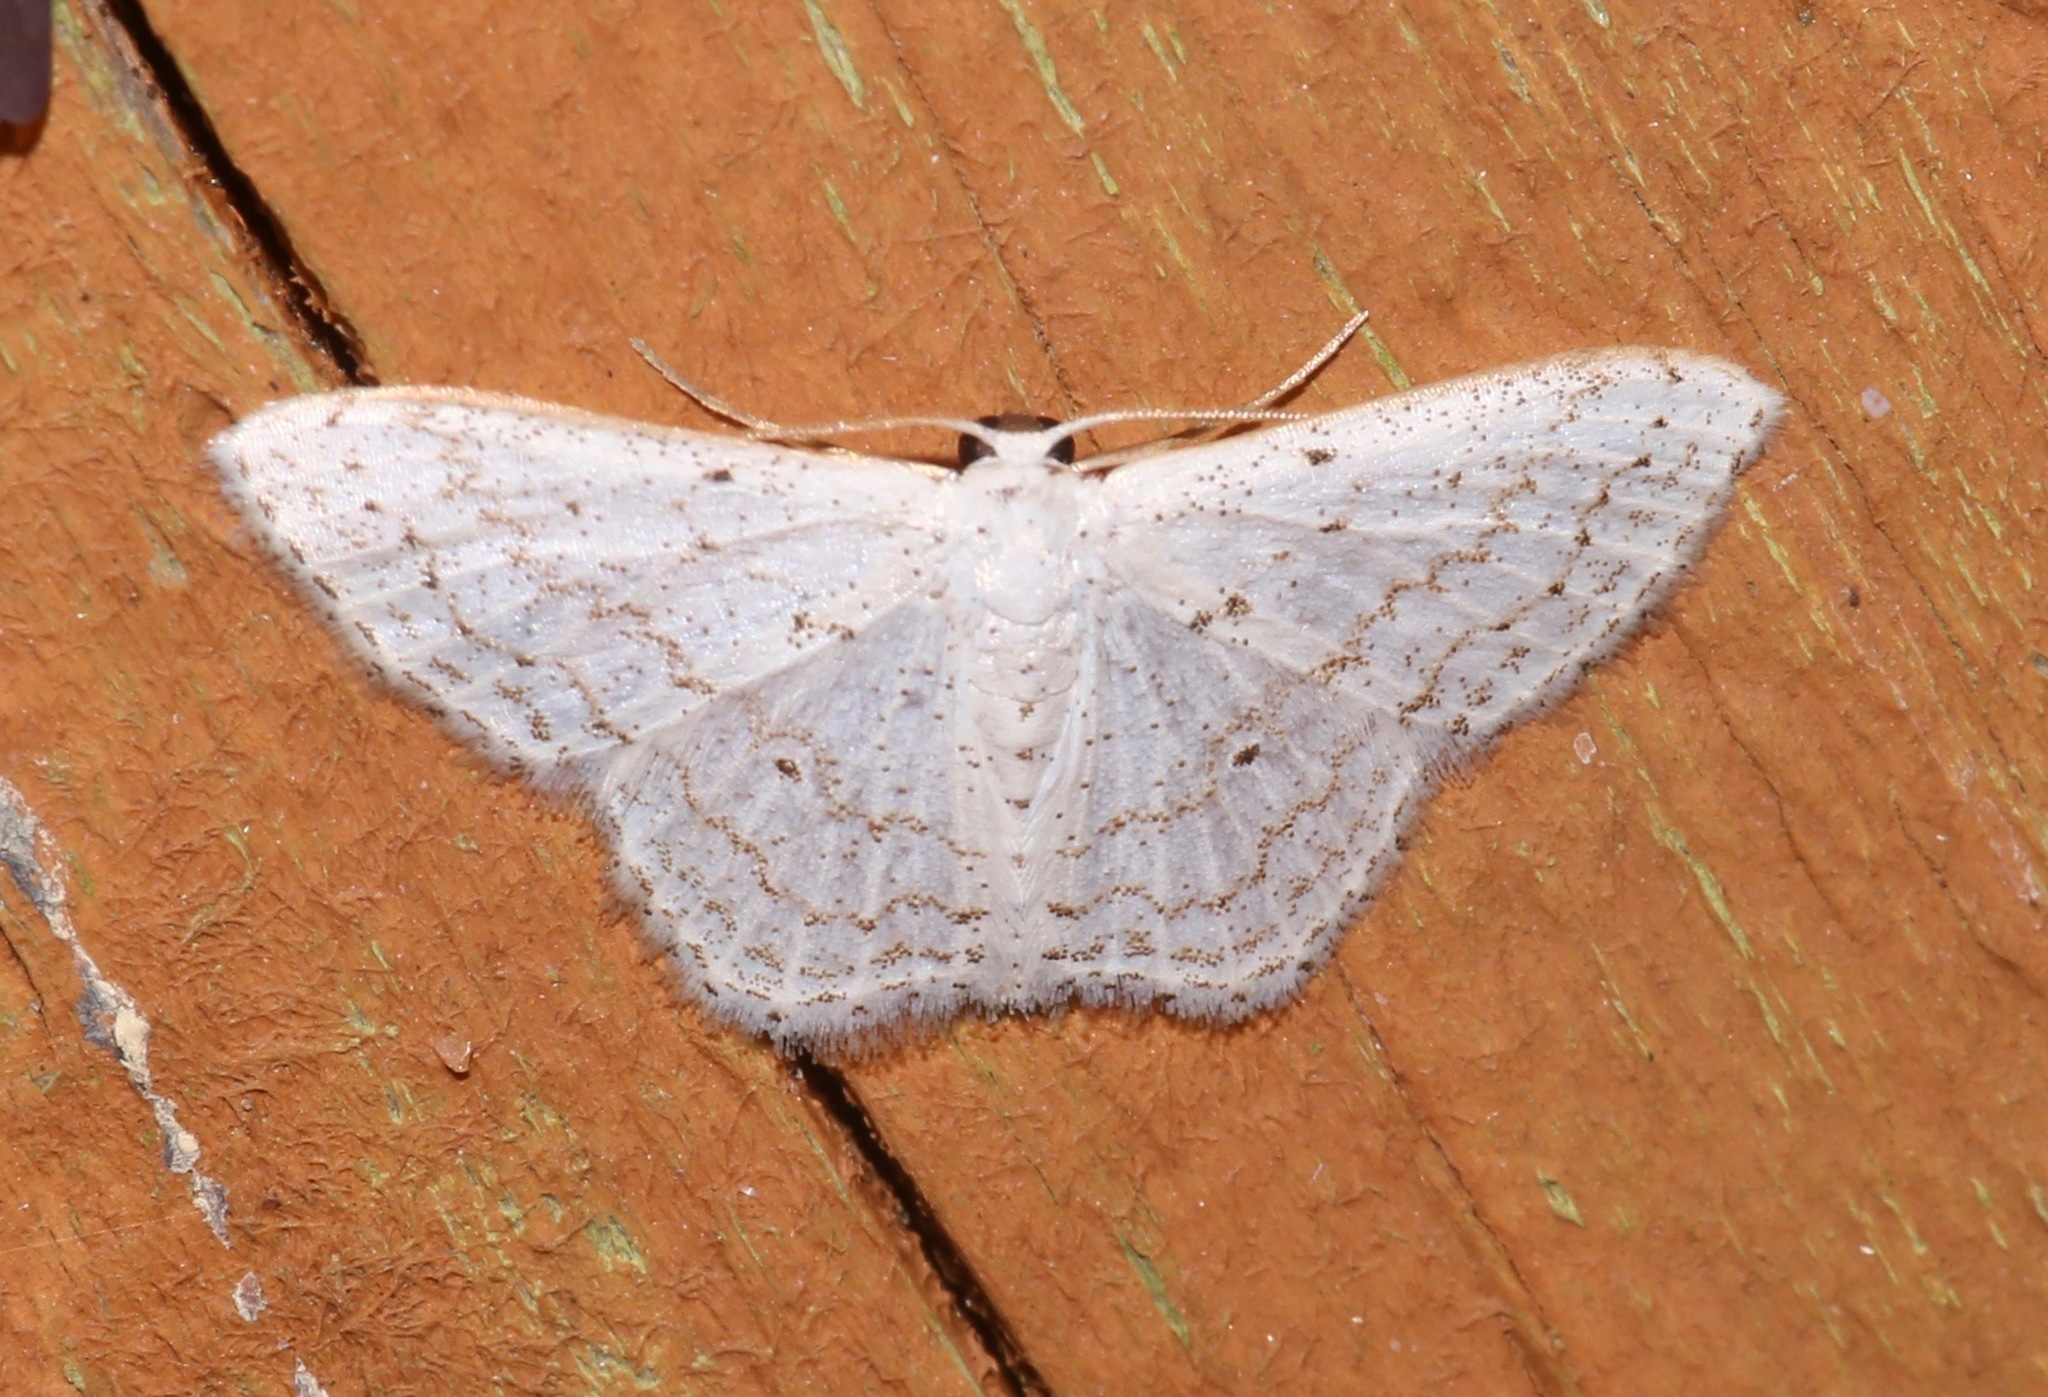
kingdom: Animalia
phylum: Arthropoda
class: Insecta
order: Lepidoptera
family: Geometridae
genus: Idaea
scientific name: Idaea tacturata
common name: Dot-lined wave
